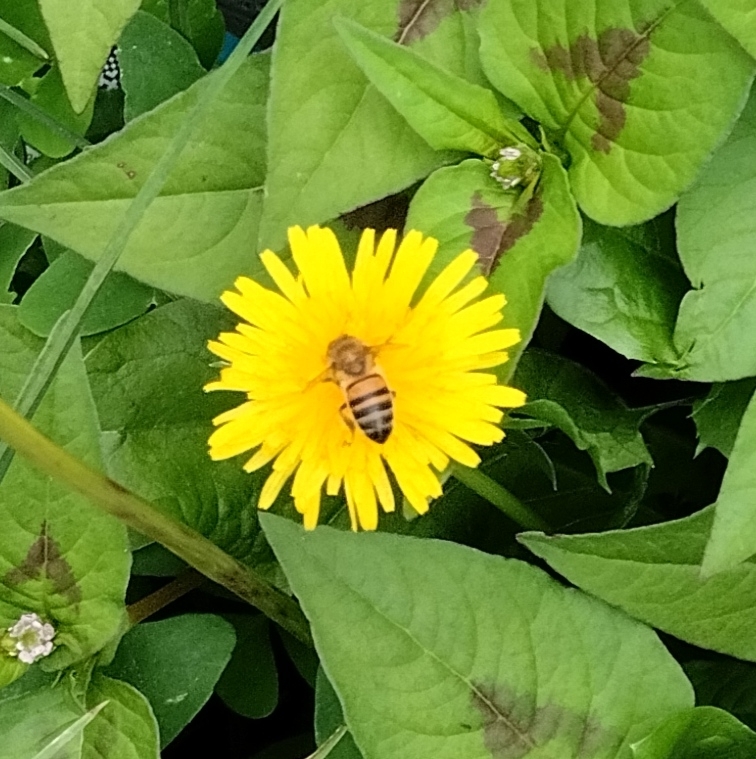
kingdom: Animalia
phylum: Arthropoda
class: Insecta
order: Hymenoptera
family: Apidae
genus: Apis
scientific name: Apis mellifera
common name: Honey bee
